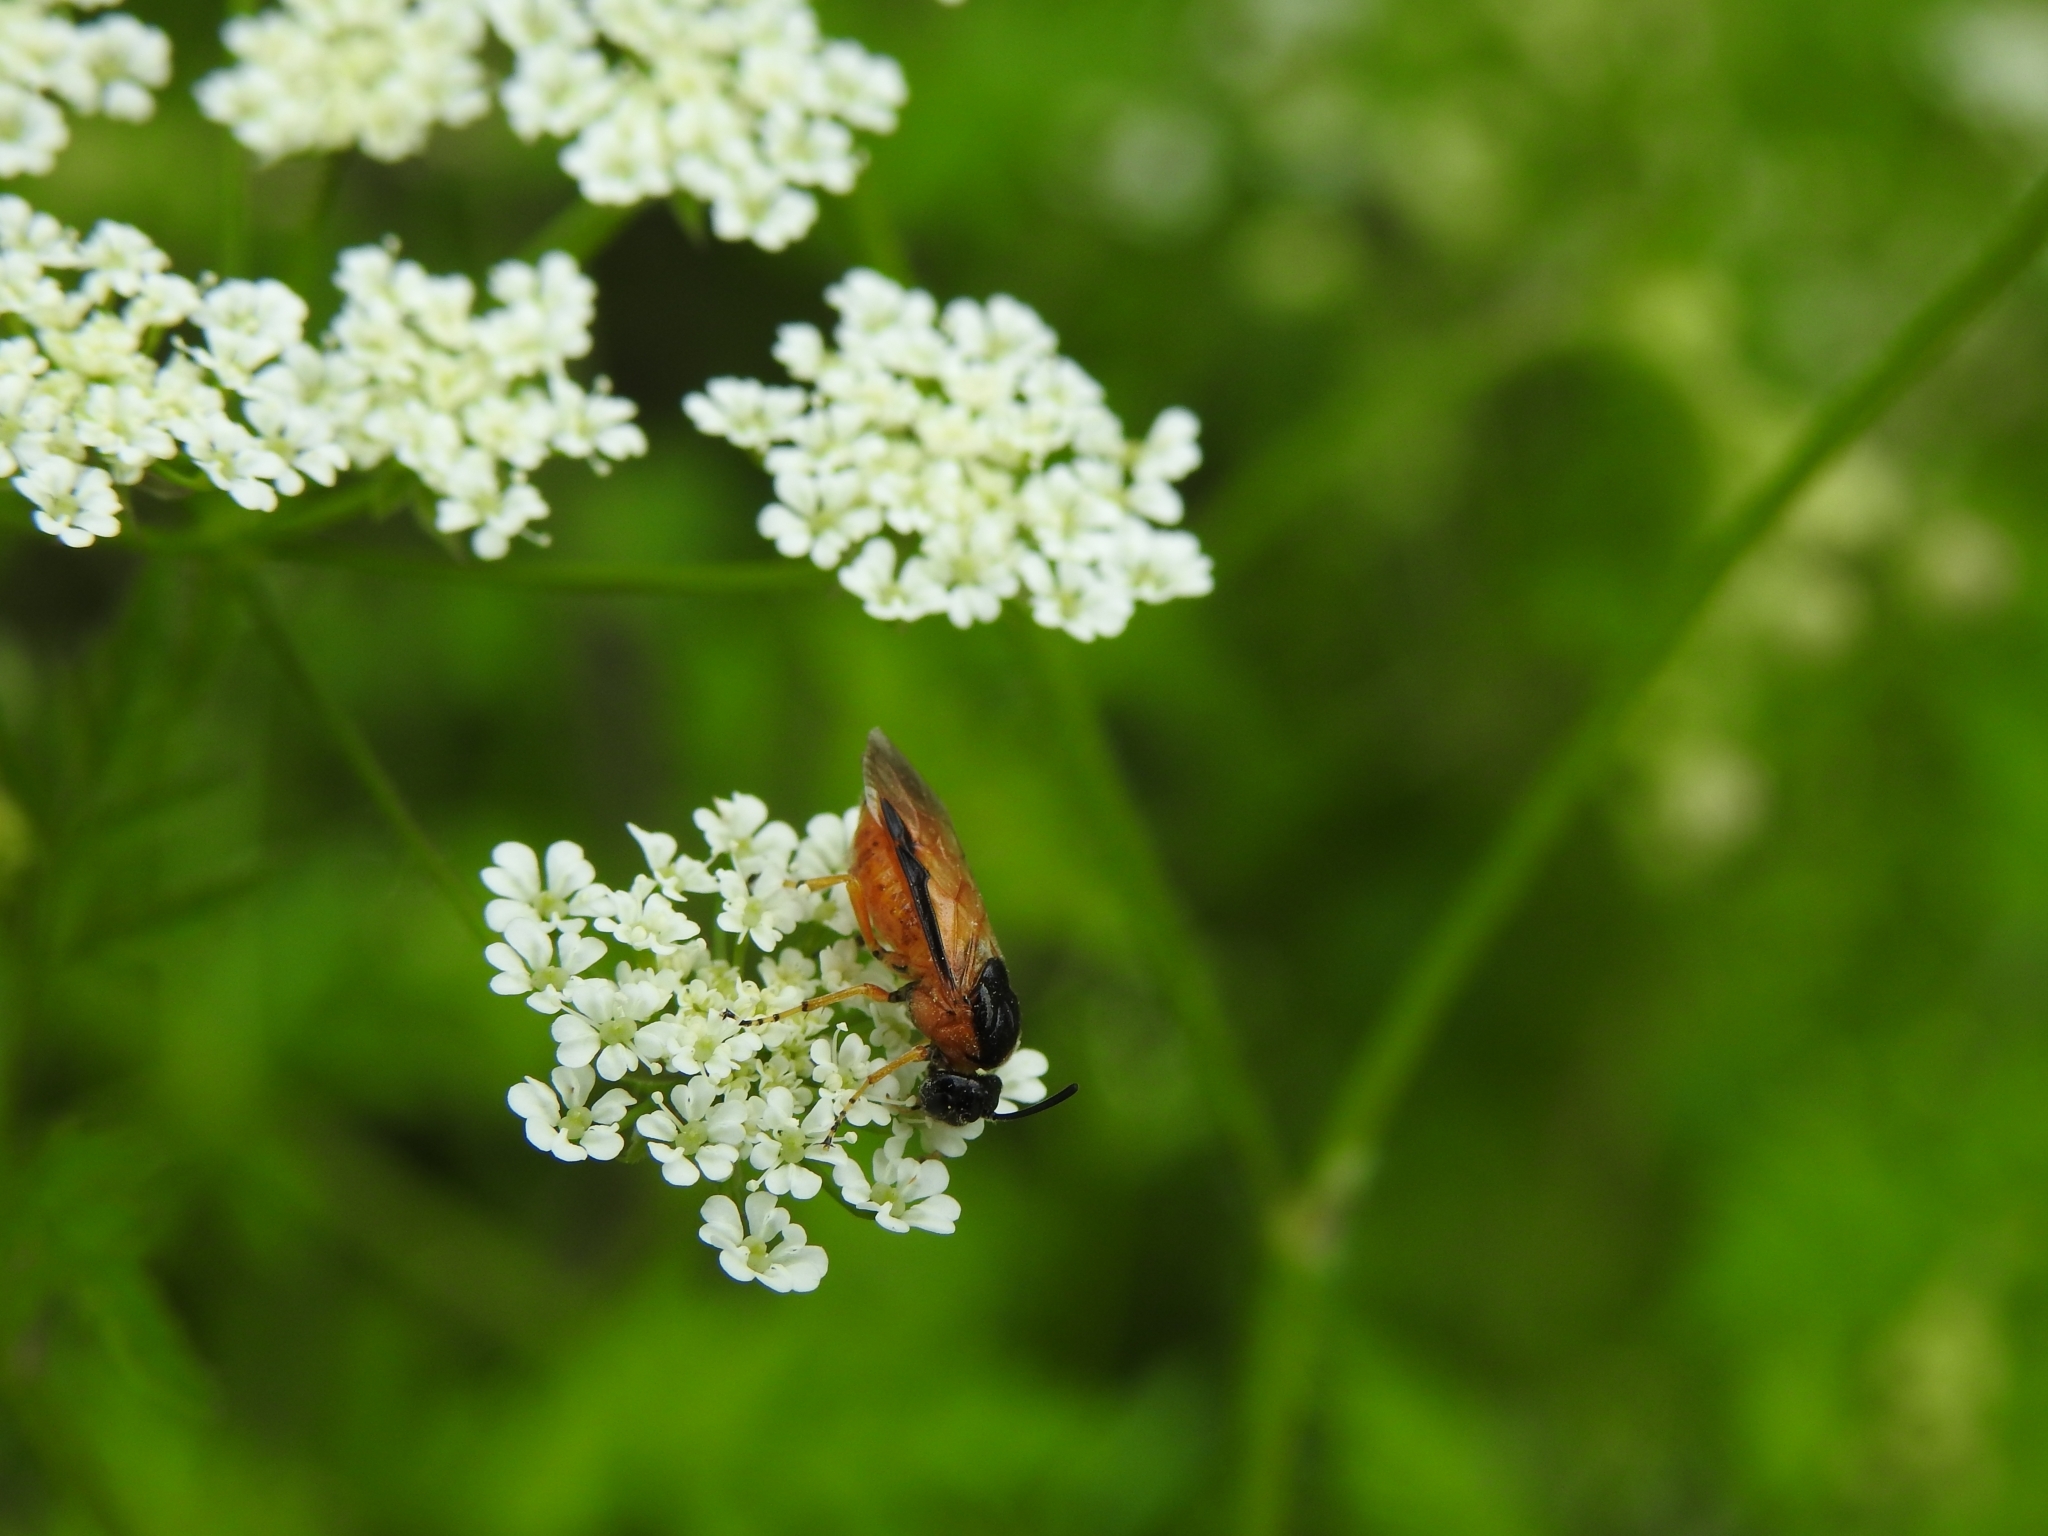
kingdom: Animalia
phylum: Arthropoda
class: Insecta
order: Hymenoptera
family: Argidae
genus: Arge
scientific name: Arge ochropus
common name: Argid sawfly
